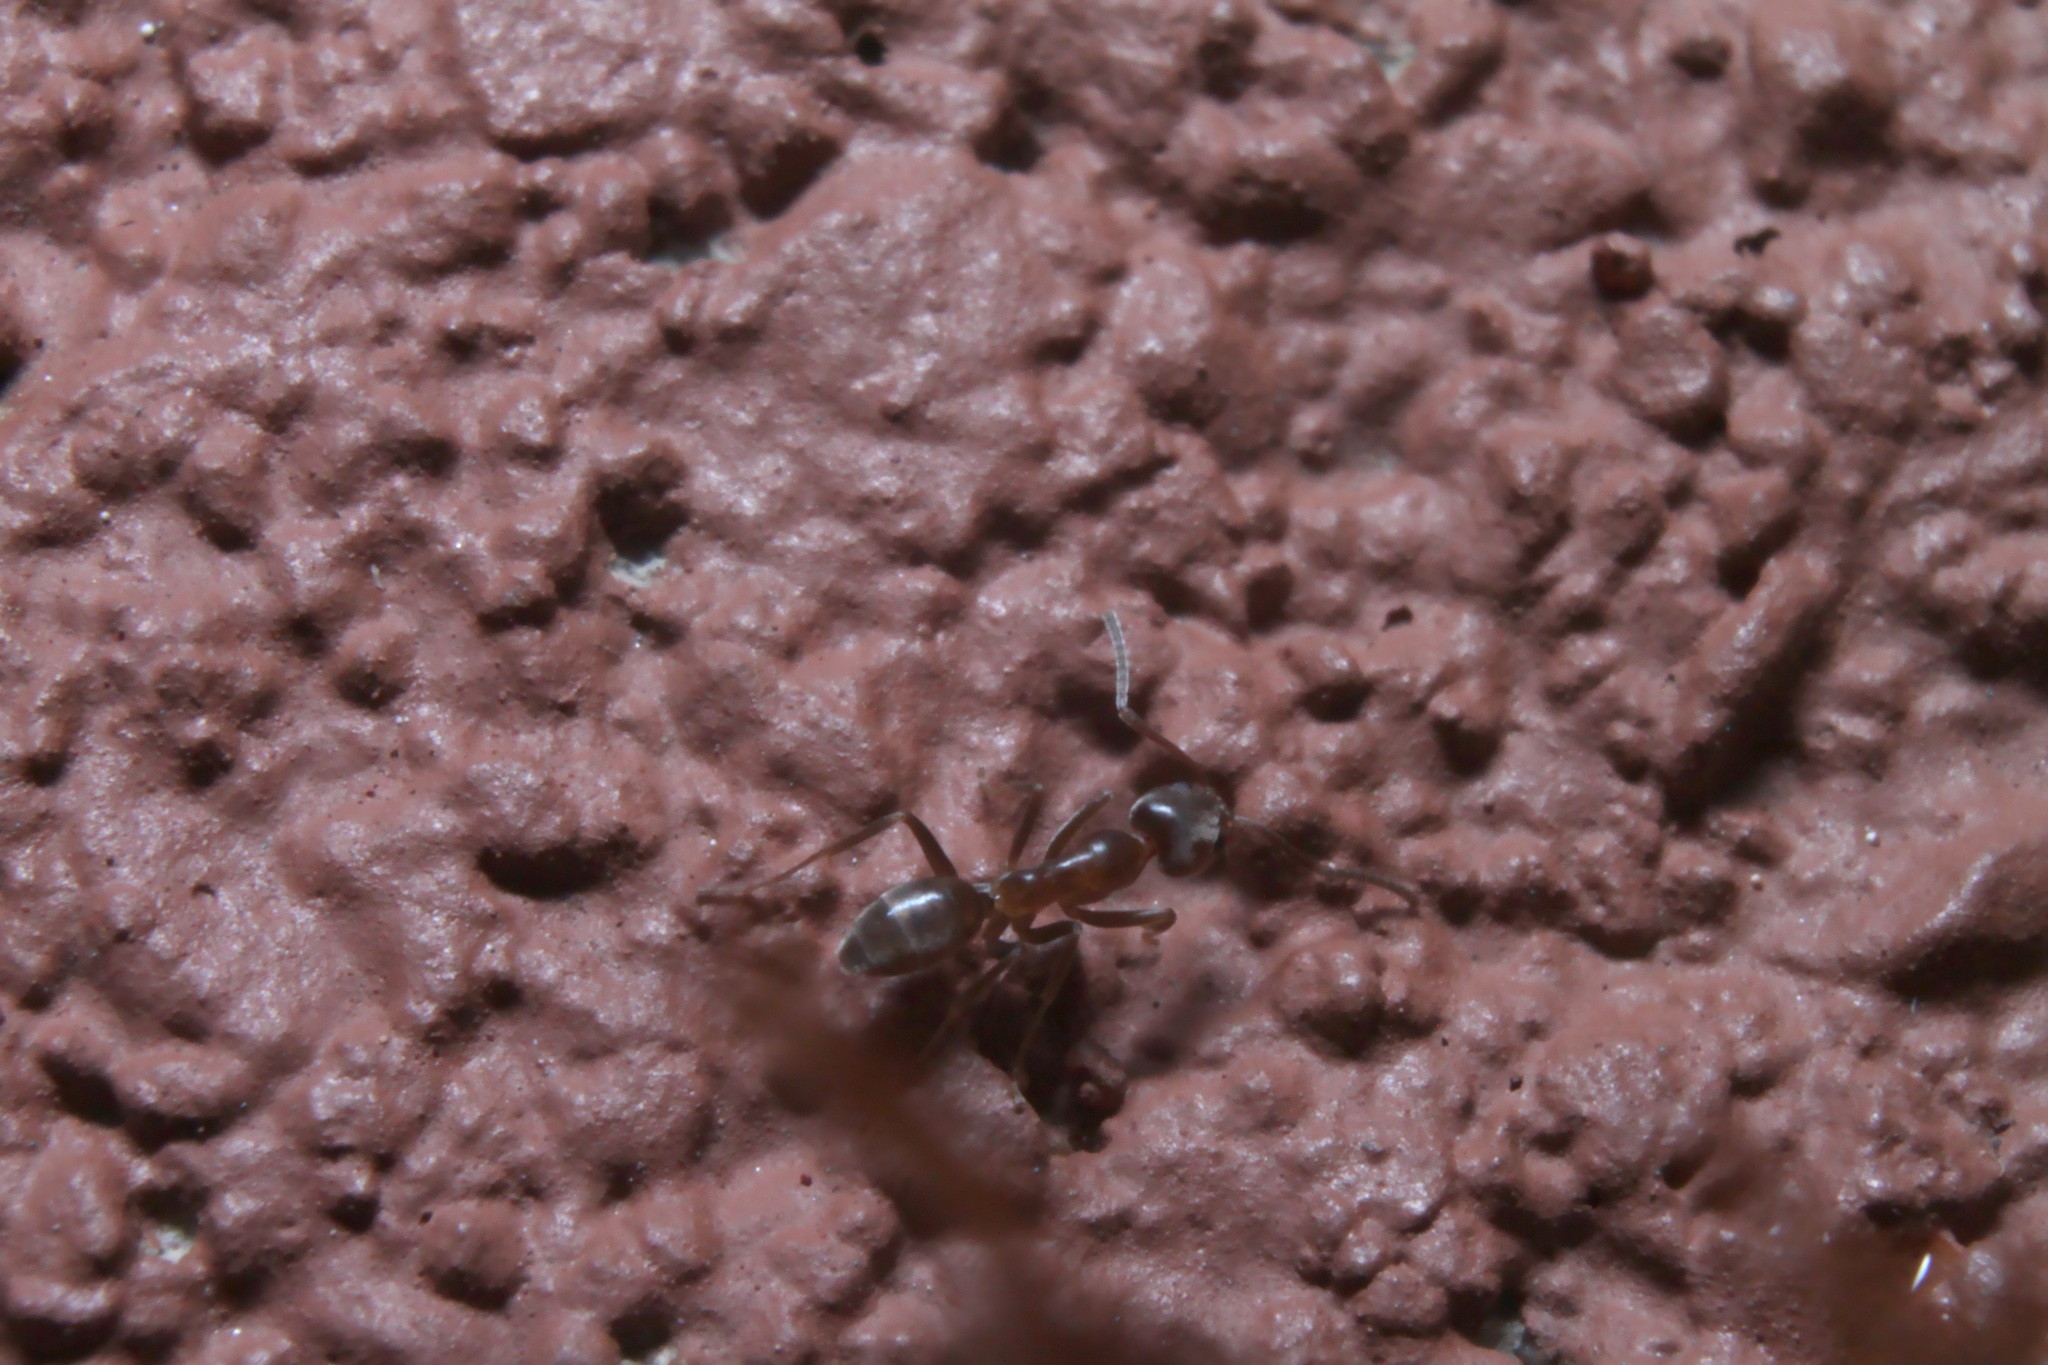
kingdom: Animalia
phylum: Arthropoda
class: Insecta
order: Hymenoptera
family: Formicidae
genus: Linepithema
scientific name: Linepithema humile
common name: Argentine ant
